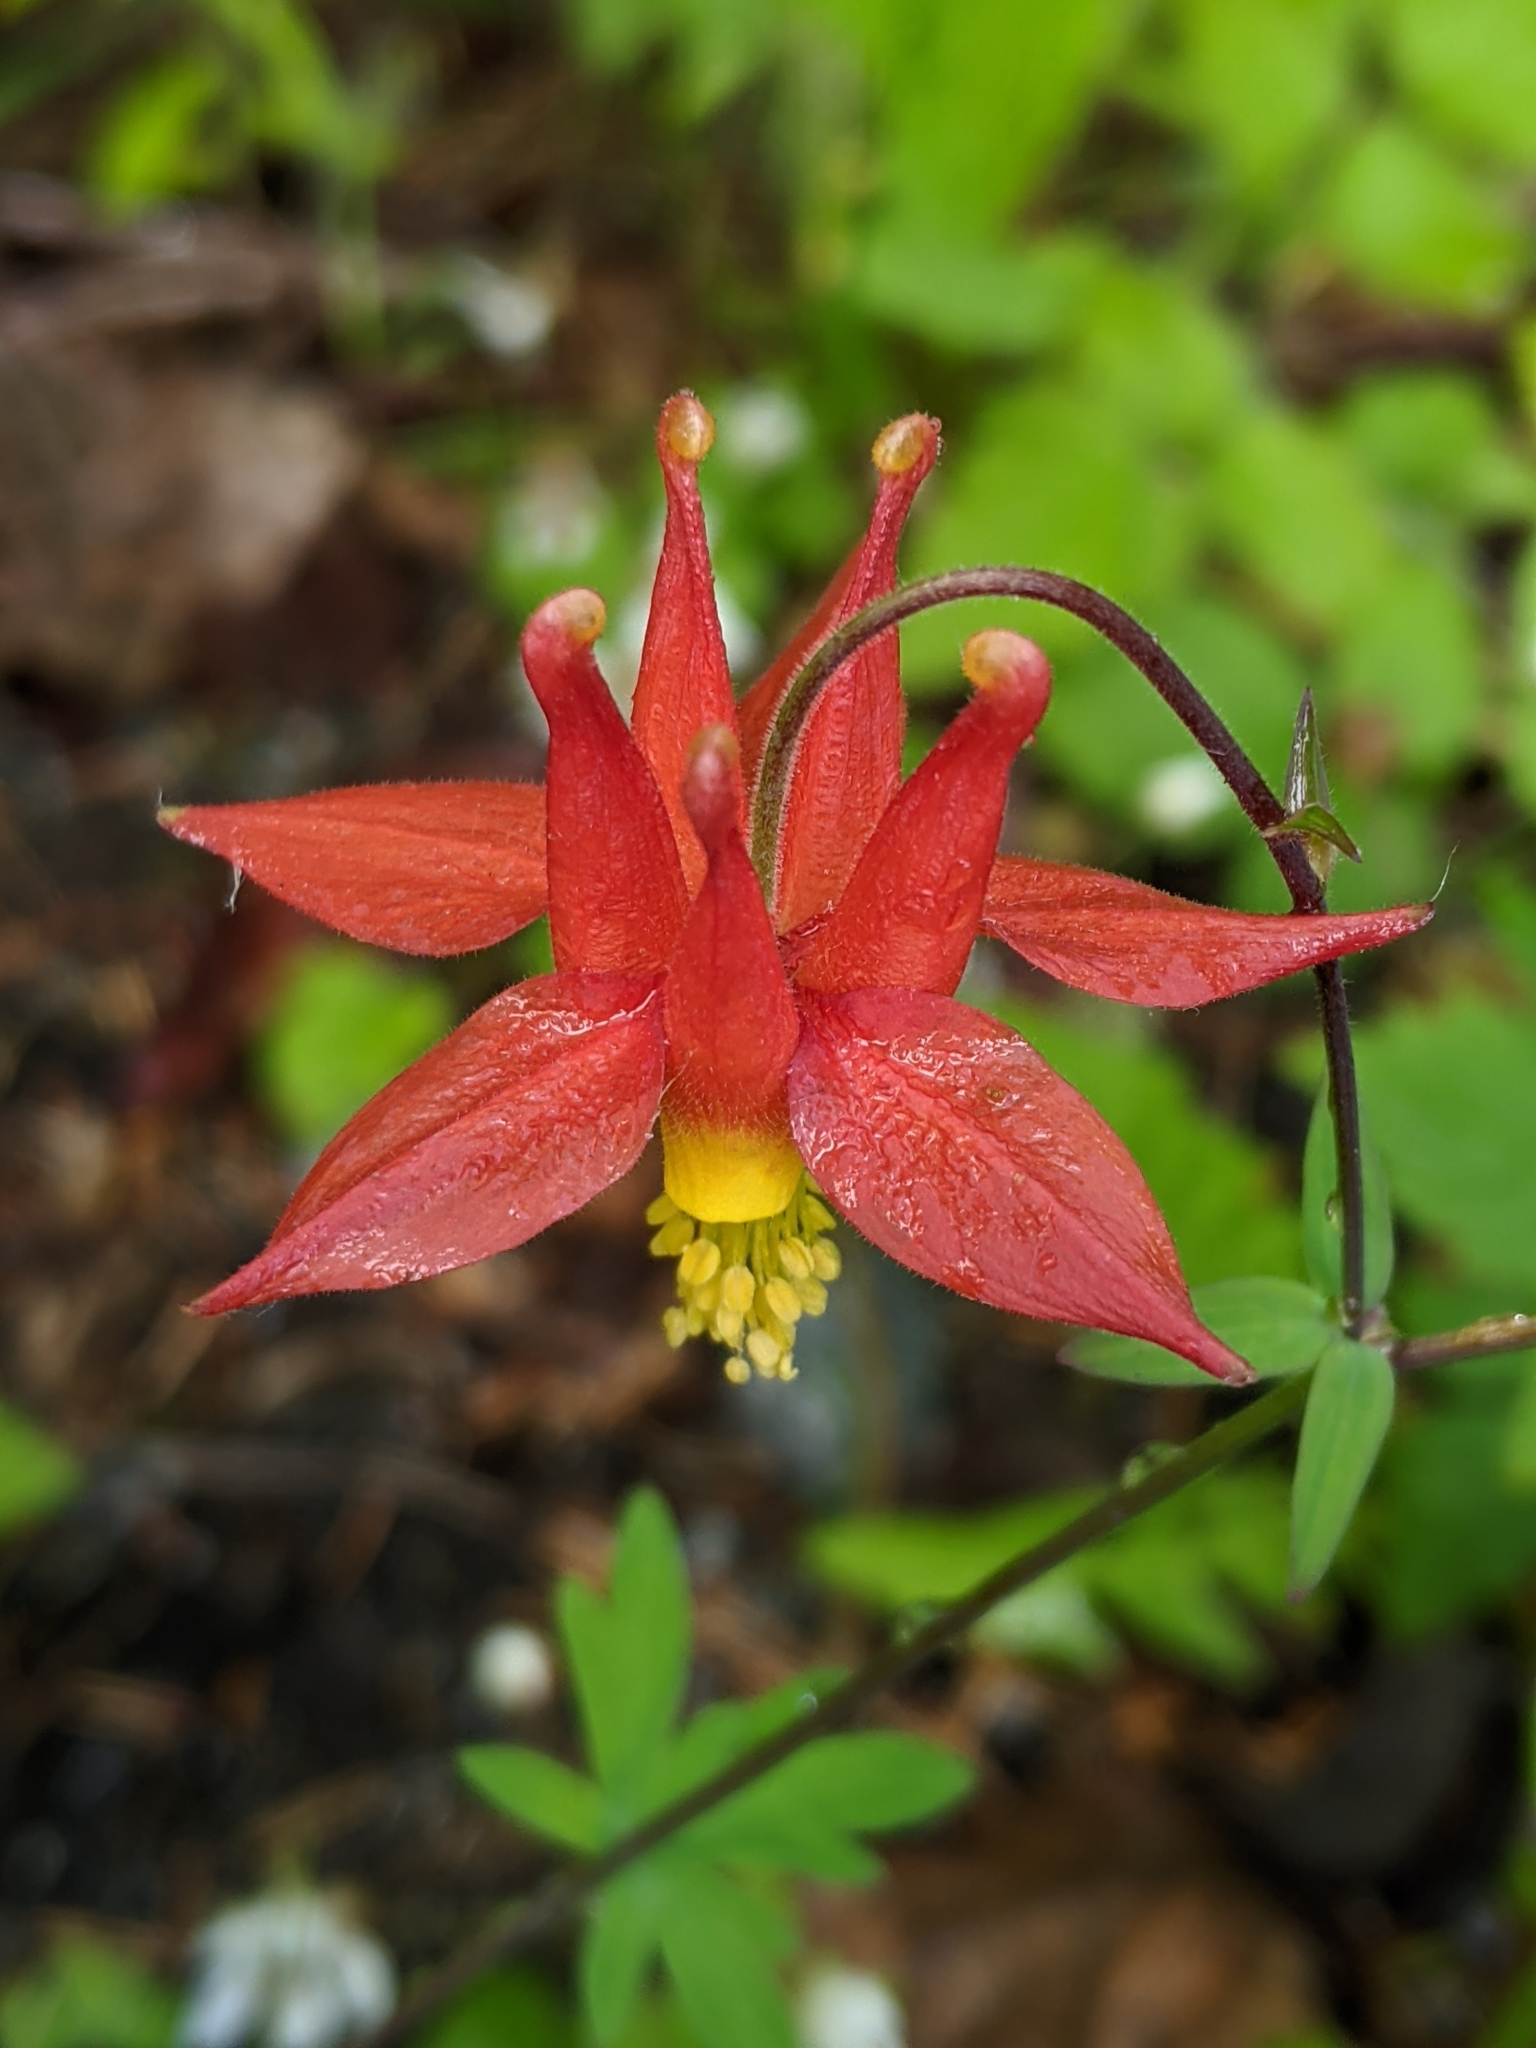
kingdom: Plantae
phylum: Tracheophyta
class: Magnoliopsida
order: Ranunculales
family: Ranunculaceae
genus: Aquilegia
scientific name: Aquilegia formosa
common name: Sitka columbine
